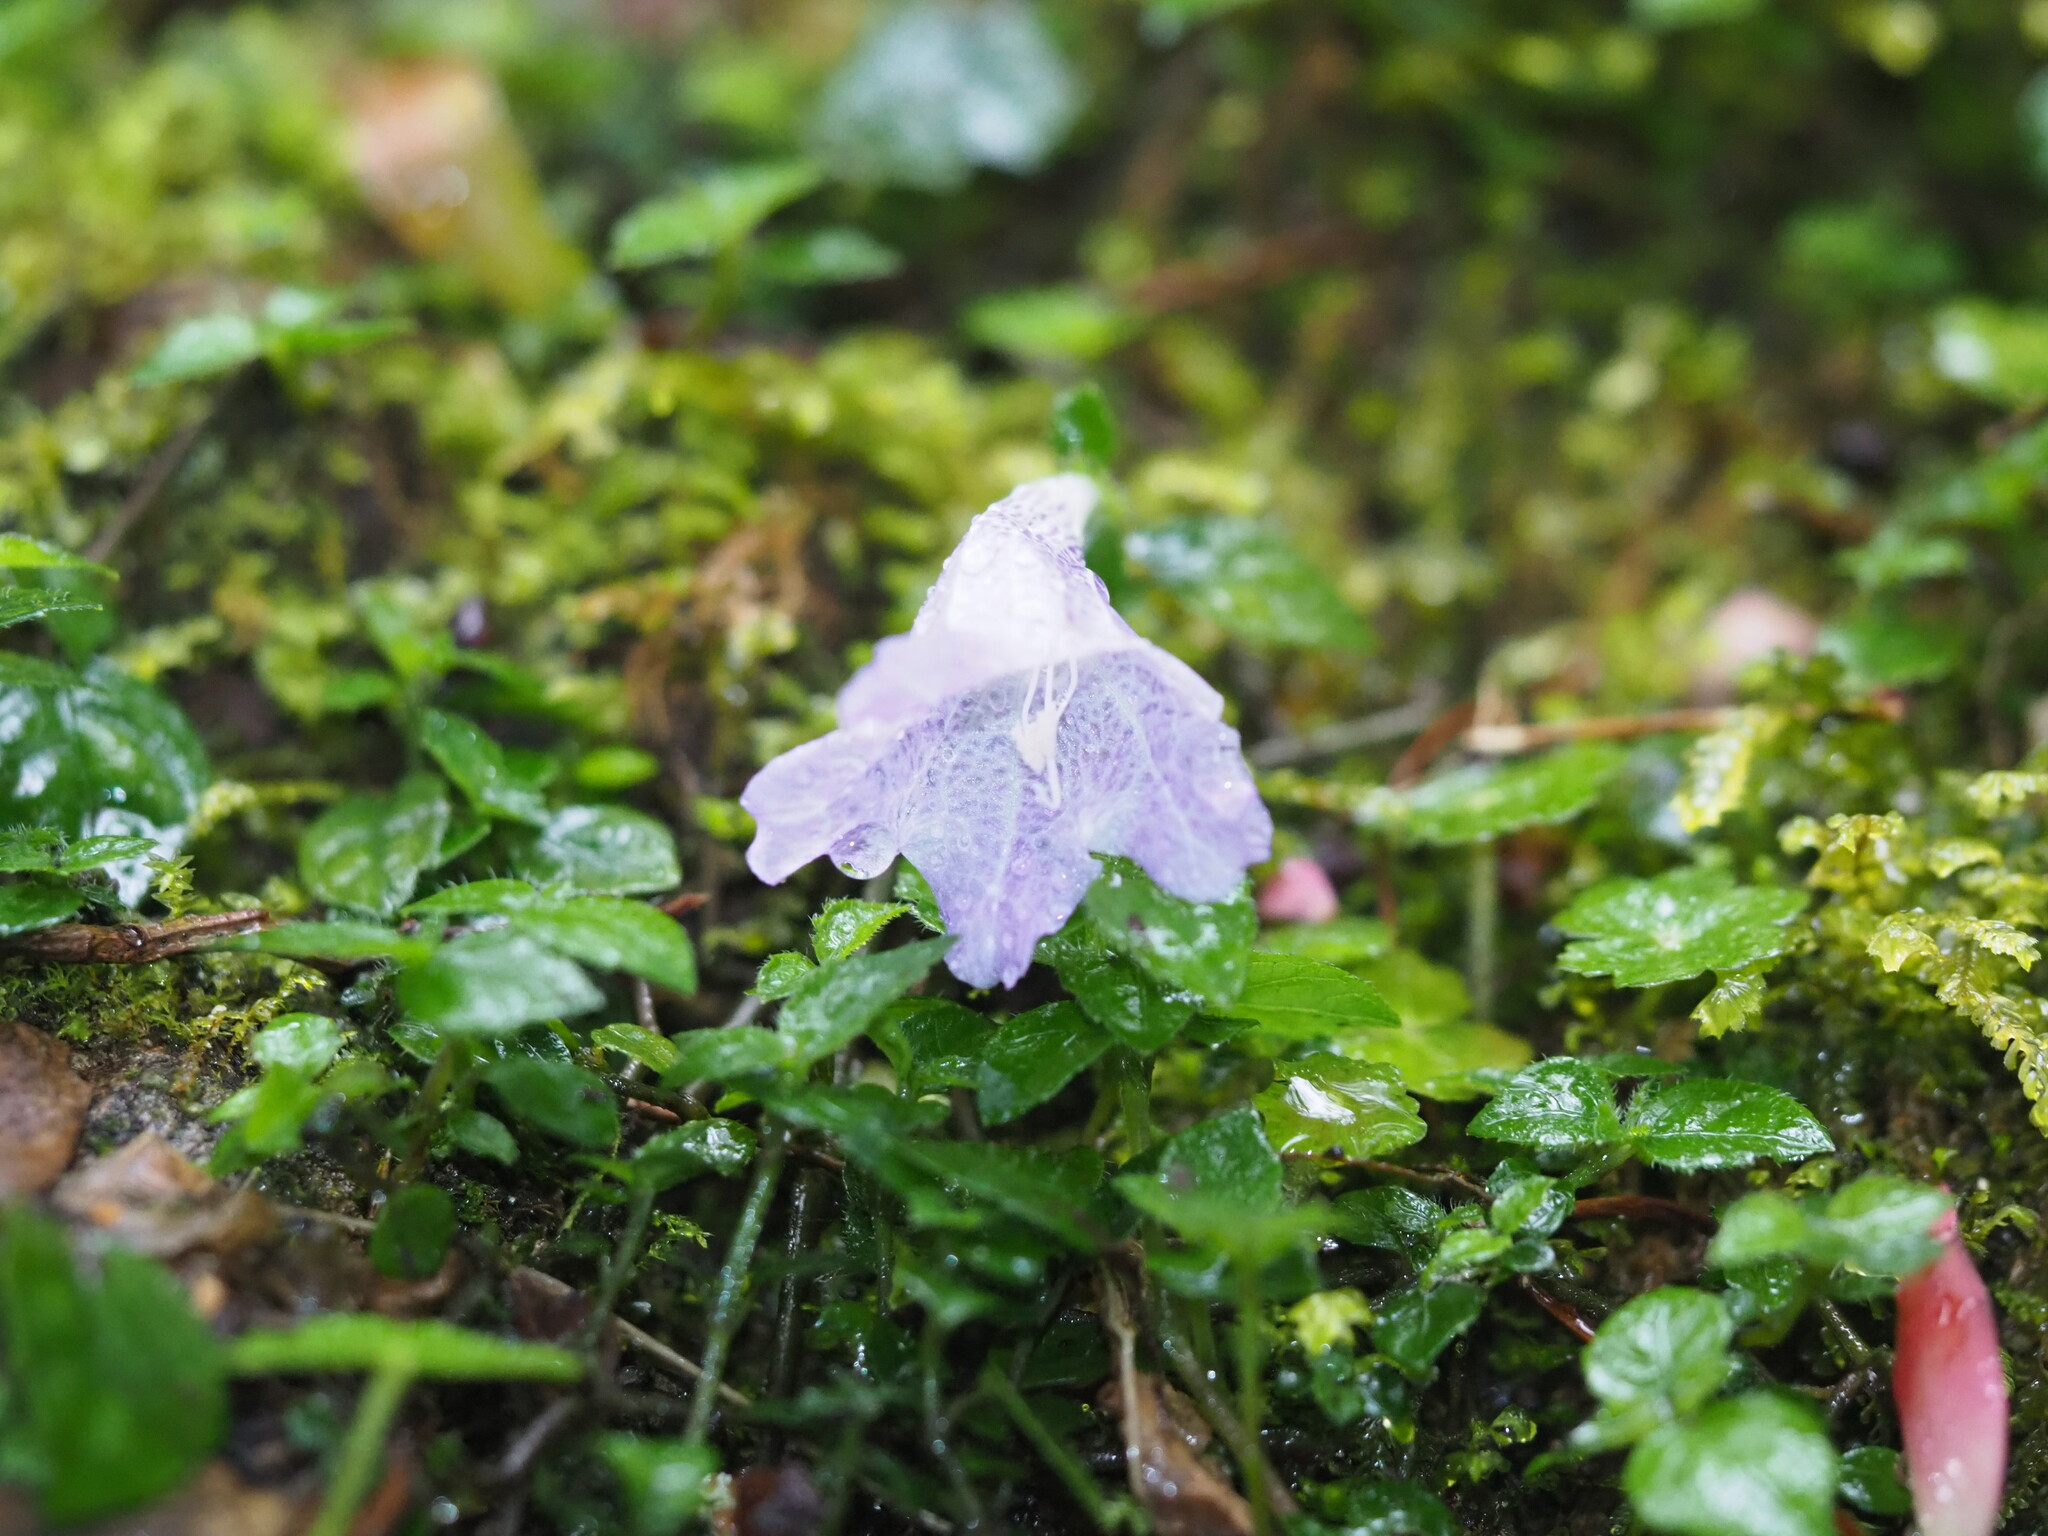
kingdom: Plantae
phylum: Tracheophyta
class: Magnoliopsida
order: Lamiales
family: Acanthaceae
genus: Strobilanthes
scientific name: Strobilanthes rankanensis
